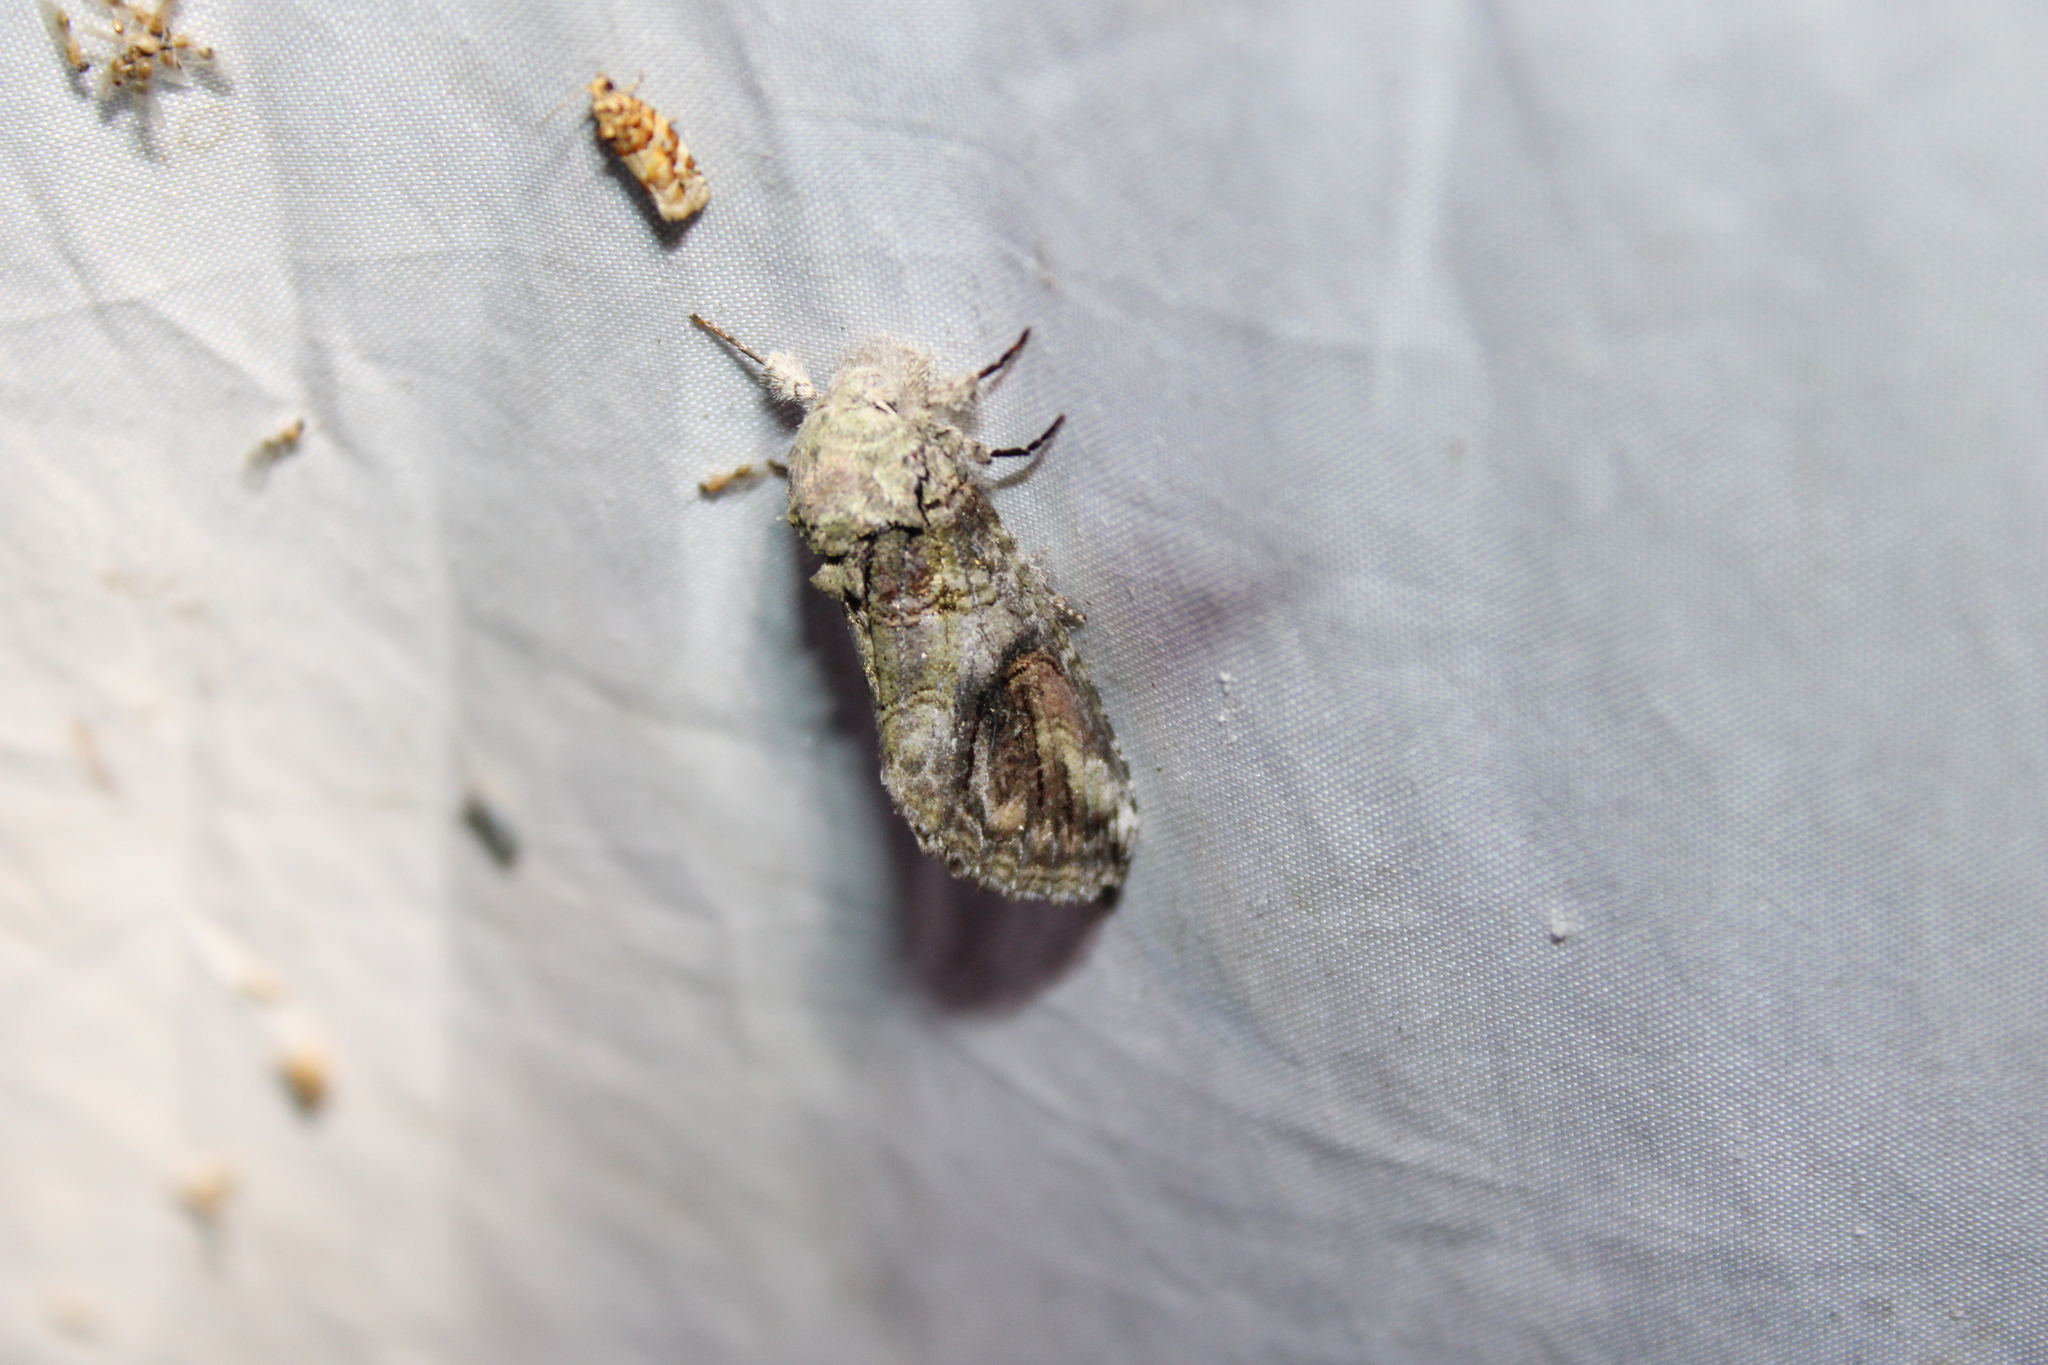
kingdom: Animalia
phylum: Arthropoda
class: Insecta
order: Lepidoptera
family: Notodontidae
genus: Heterocampa
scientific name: Heterocampa obliqua
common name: Oblique heterocampa
